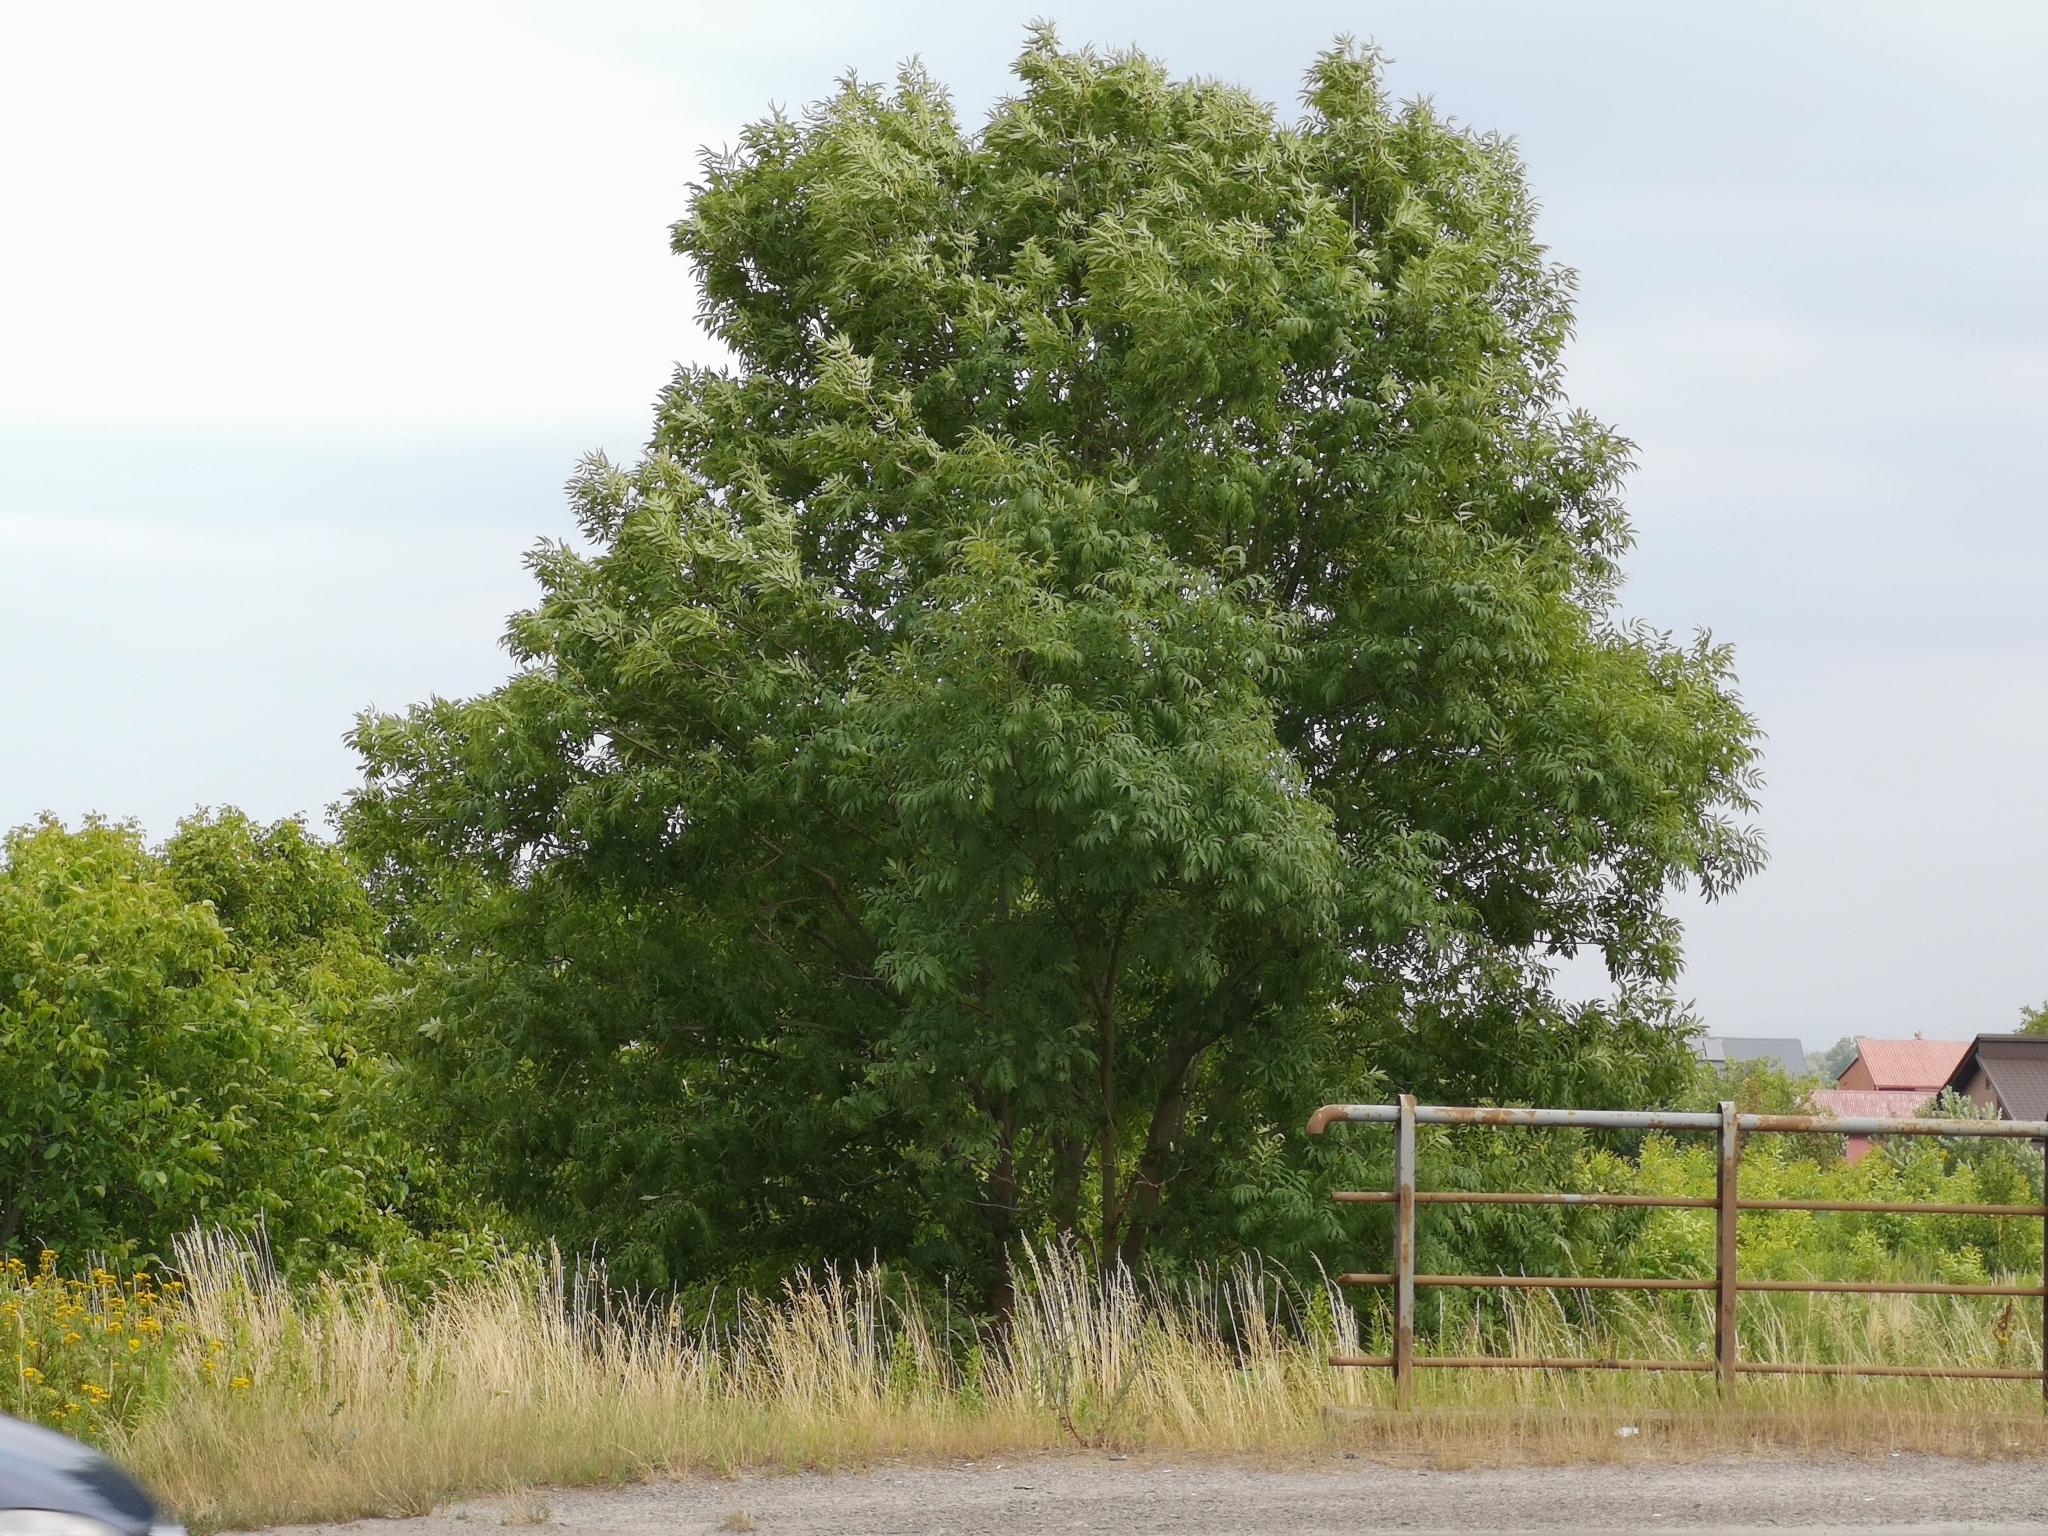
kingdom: Plantae
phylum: Tracheophyta
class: Magnoliopsida
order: Lamiales
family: Oleaceae
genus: Fraxinus
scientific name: Fraxinus excelsior
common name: European ash
